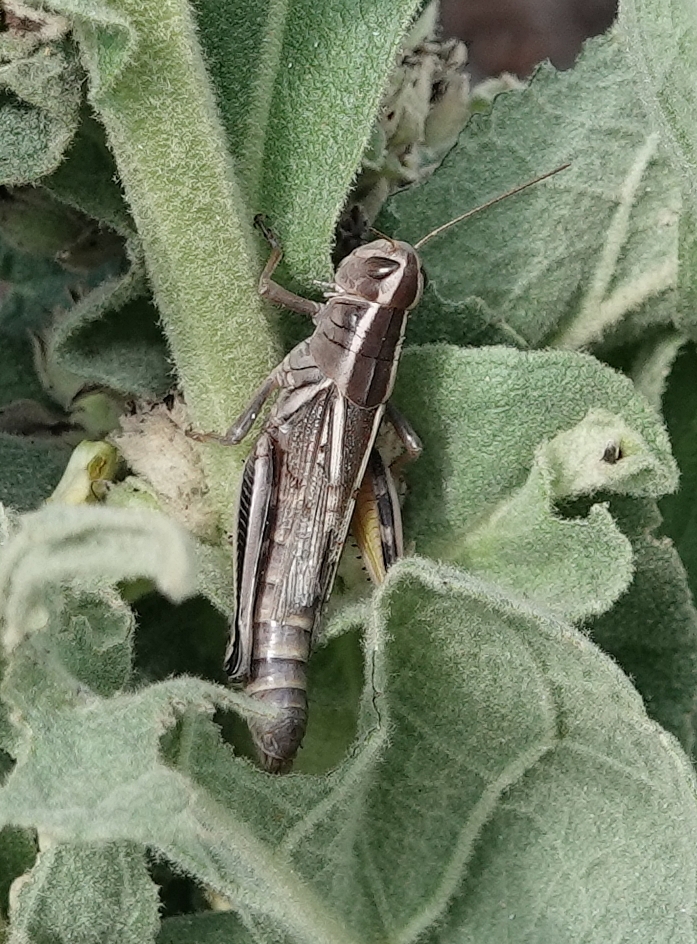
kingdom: Animalia
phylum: Arthropoda
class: Insecta
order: Orthoptera
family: Acrididae
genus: Melanoplus
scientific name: Melanoplus bivittatus
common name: Two-striped grasshopper
